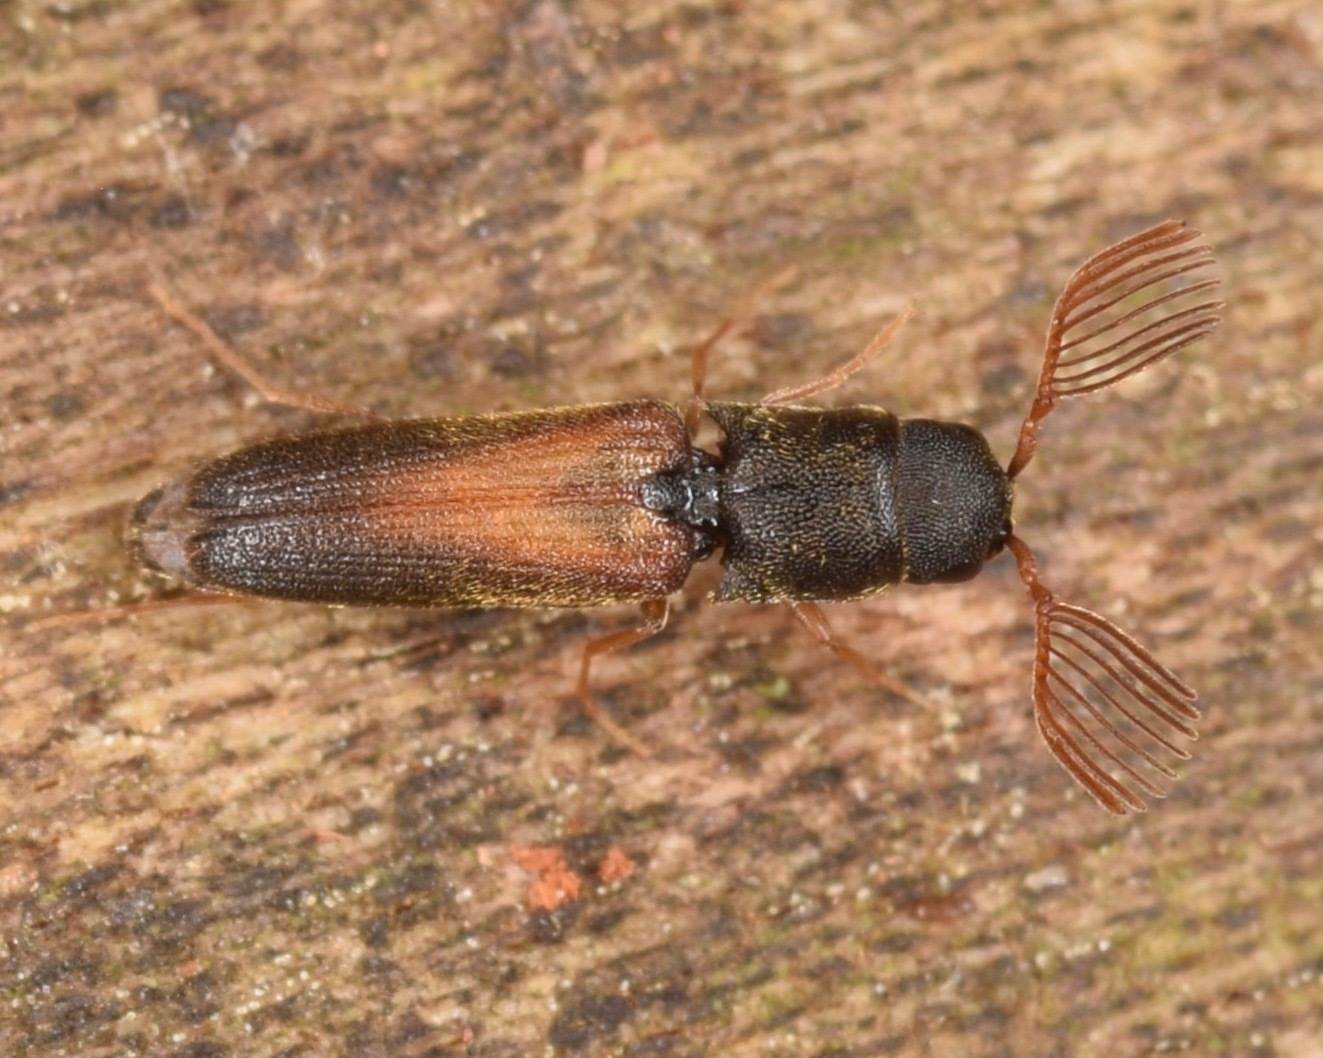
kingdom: Animalia
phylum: Arthropoda
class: Insecta
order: Coleoptera
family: Eucnemidae
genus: Isorhipis
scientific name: Isorhipis obliqua
